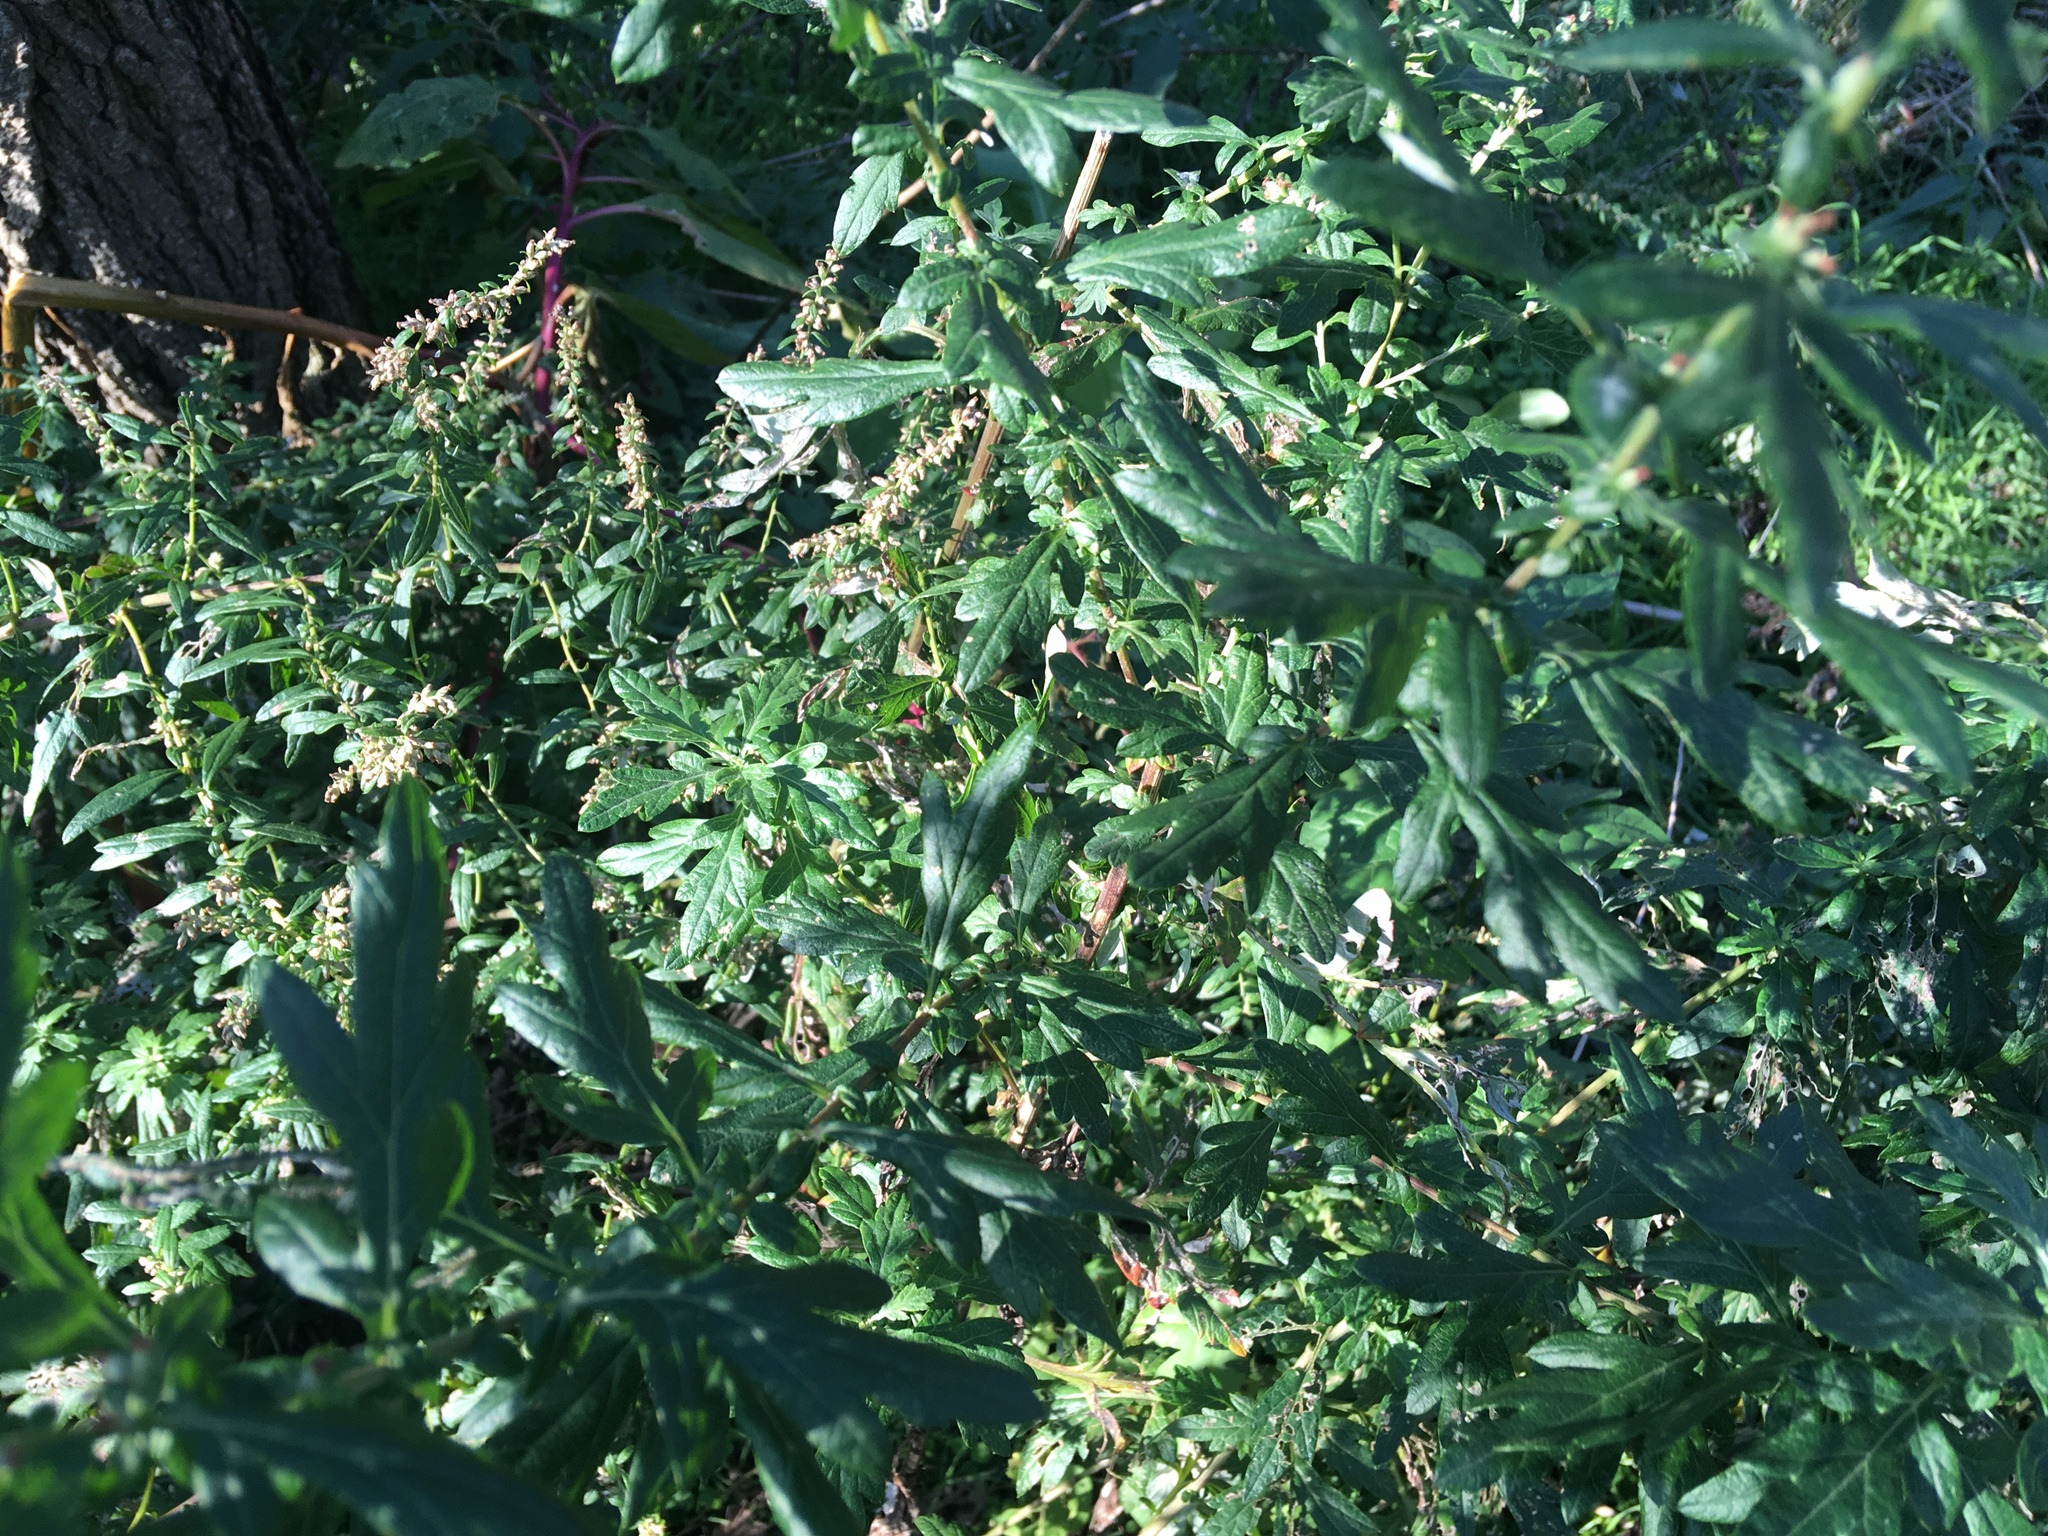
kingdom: Plantae
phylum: Tracheophyta
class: Magnoliopsida
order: Asterales
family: Asteraceae
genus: Artemisia
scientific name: Artemisia vulgaris
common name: Mugwort
